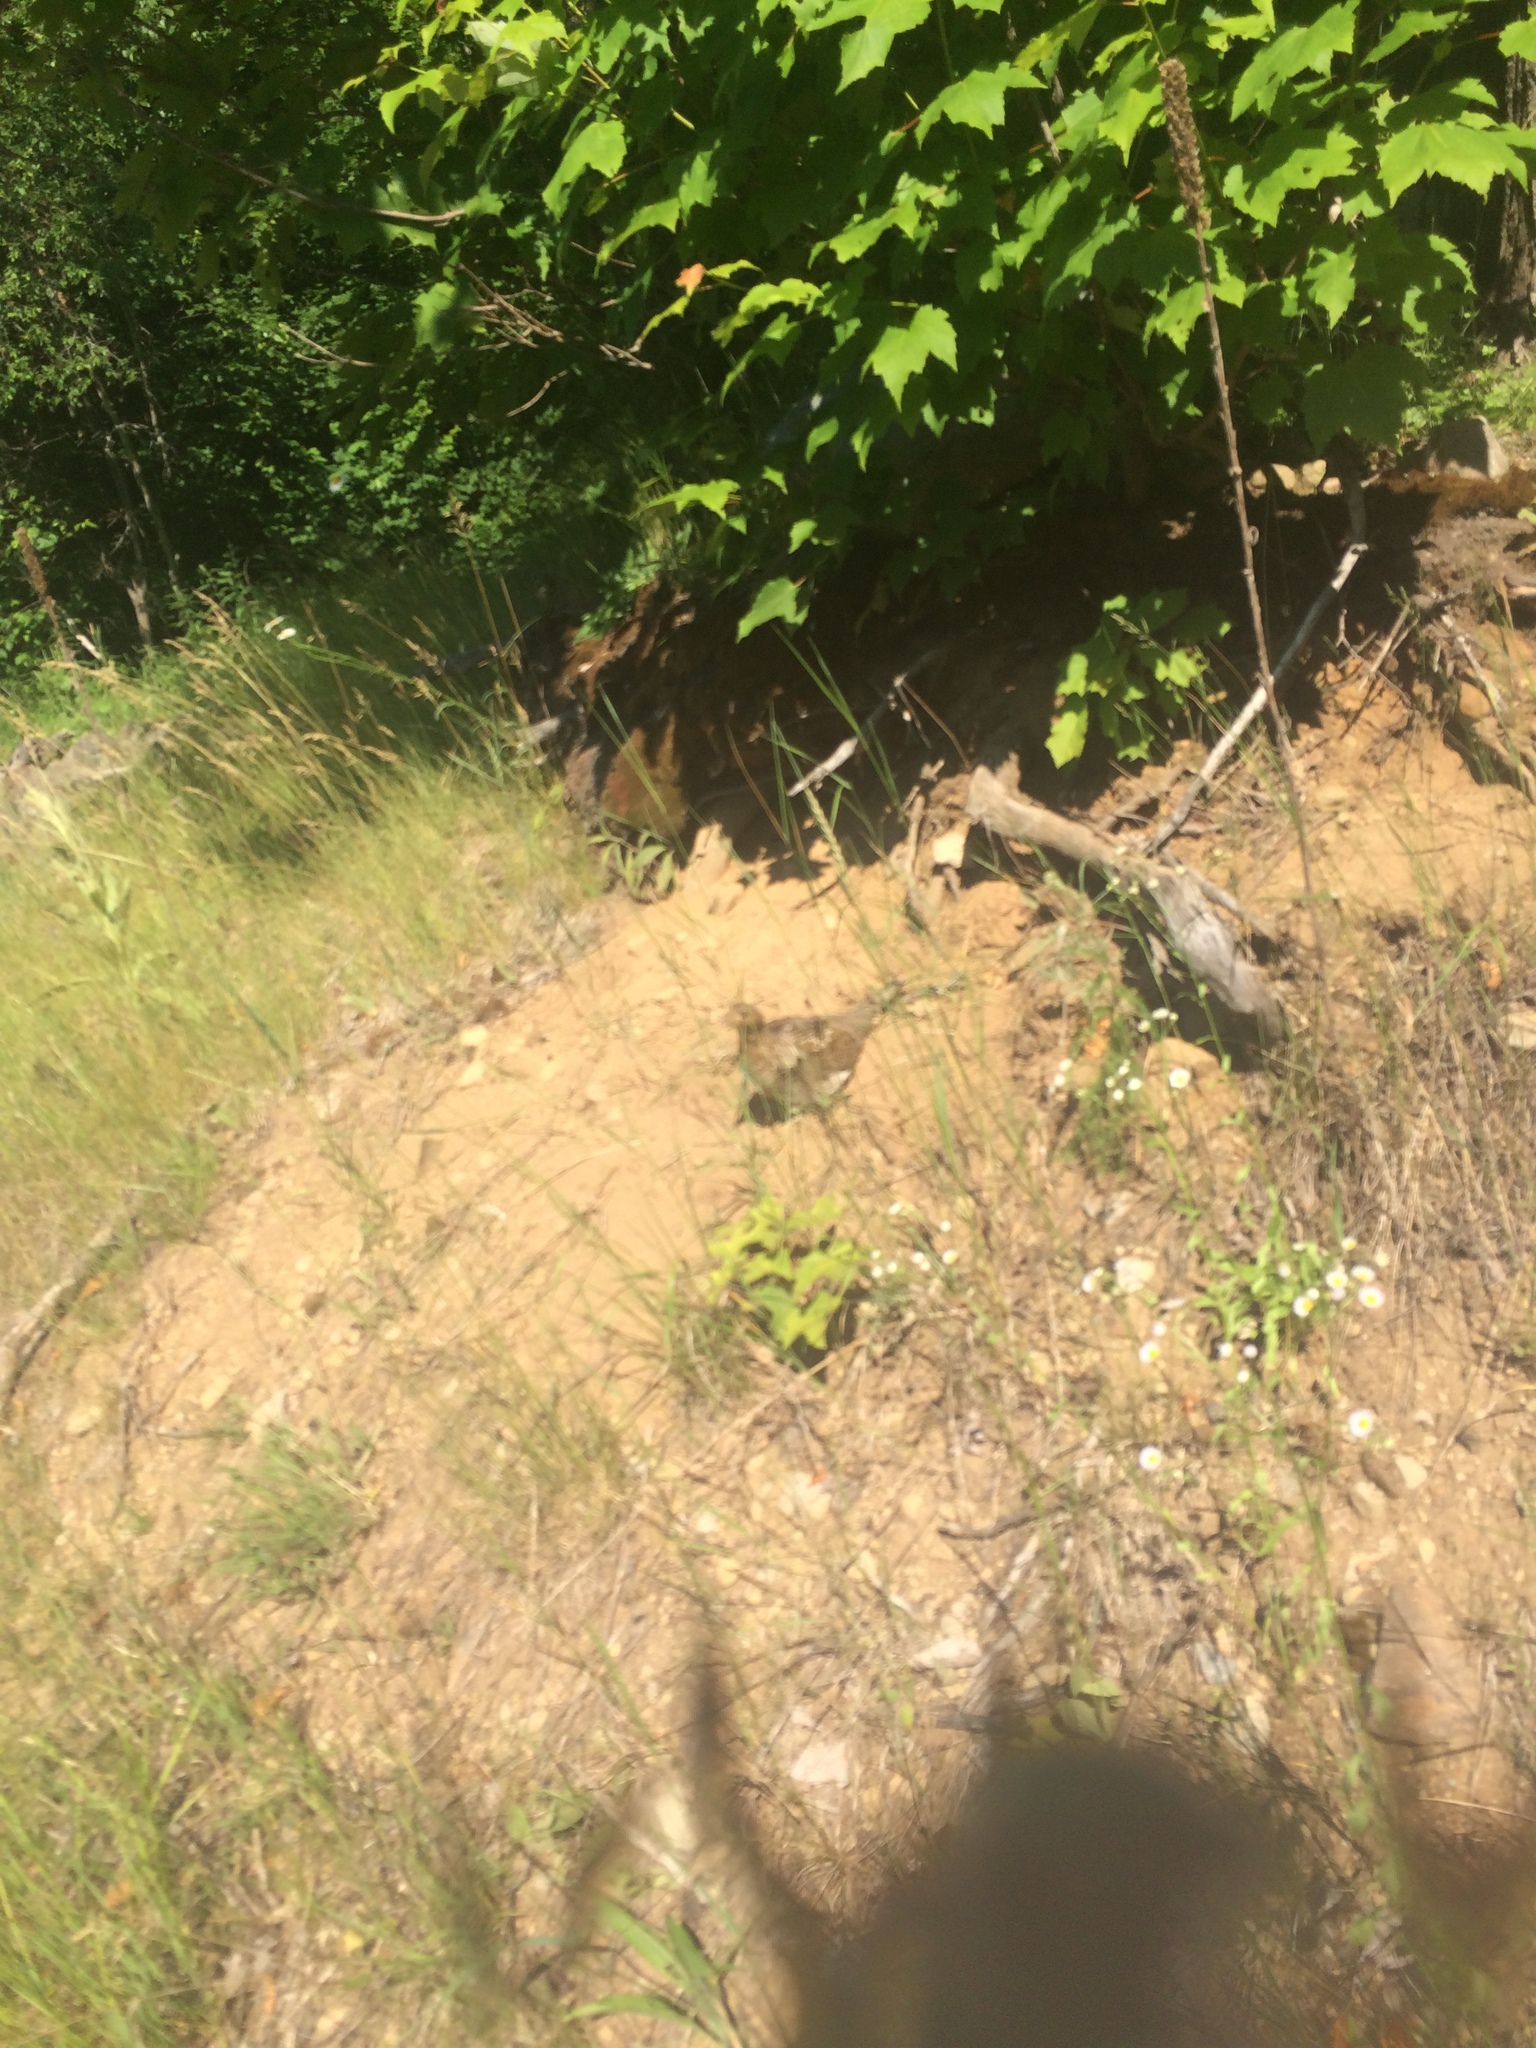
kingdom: Animalia
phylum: Chordata
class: Aves
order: Galliformes
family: Phasianidae
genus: Bonasa
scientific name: Bonasa umbellus
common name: Ruffed grouse
